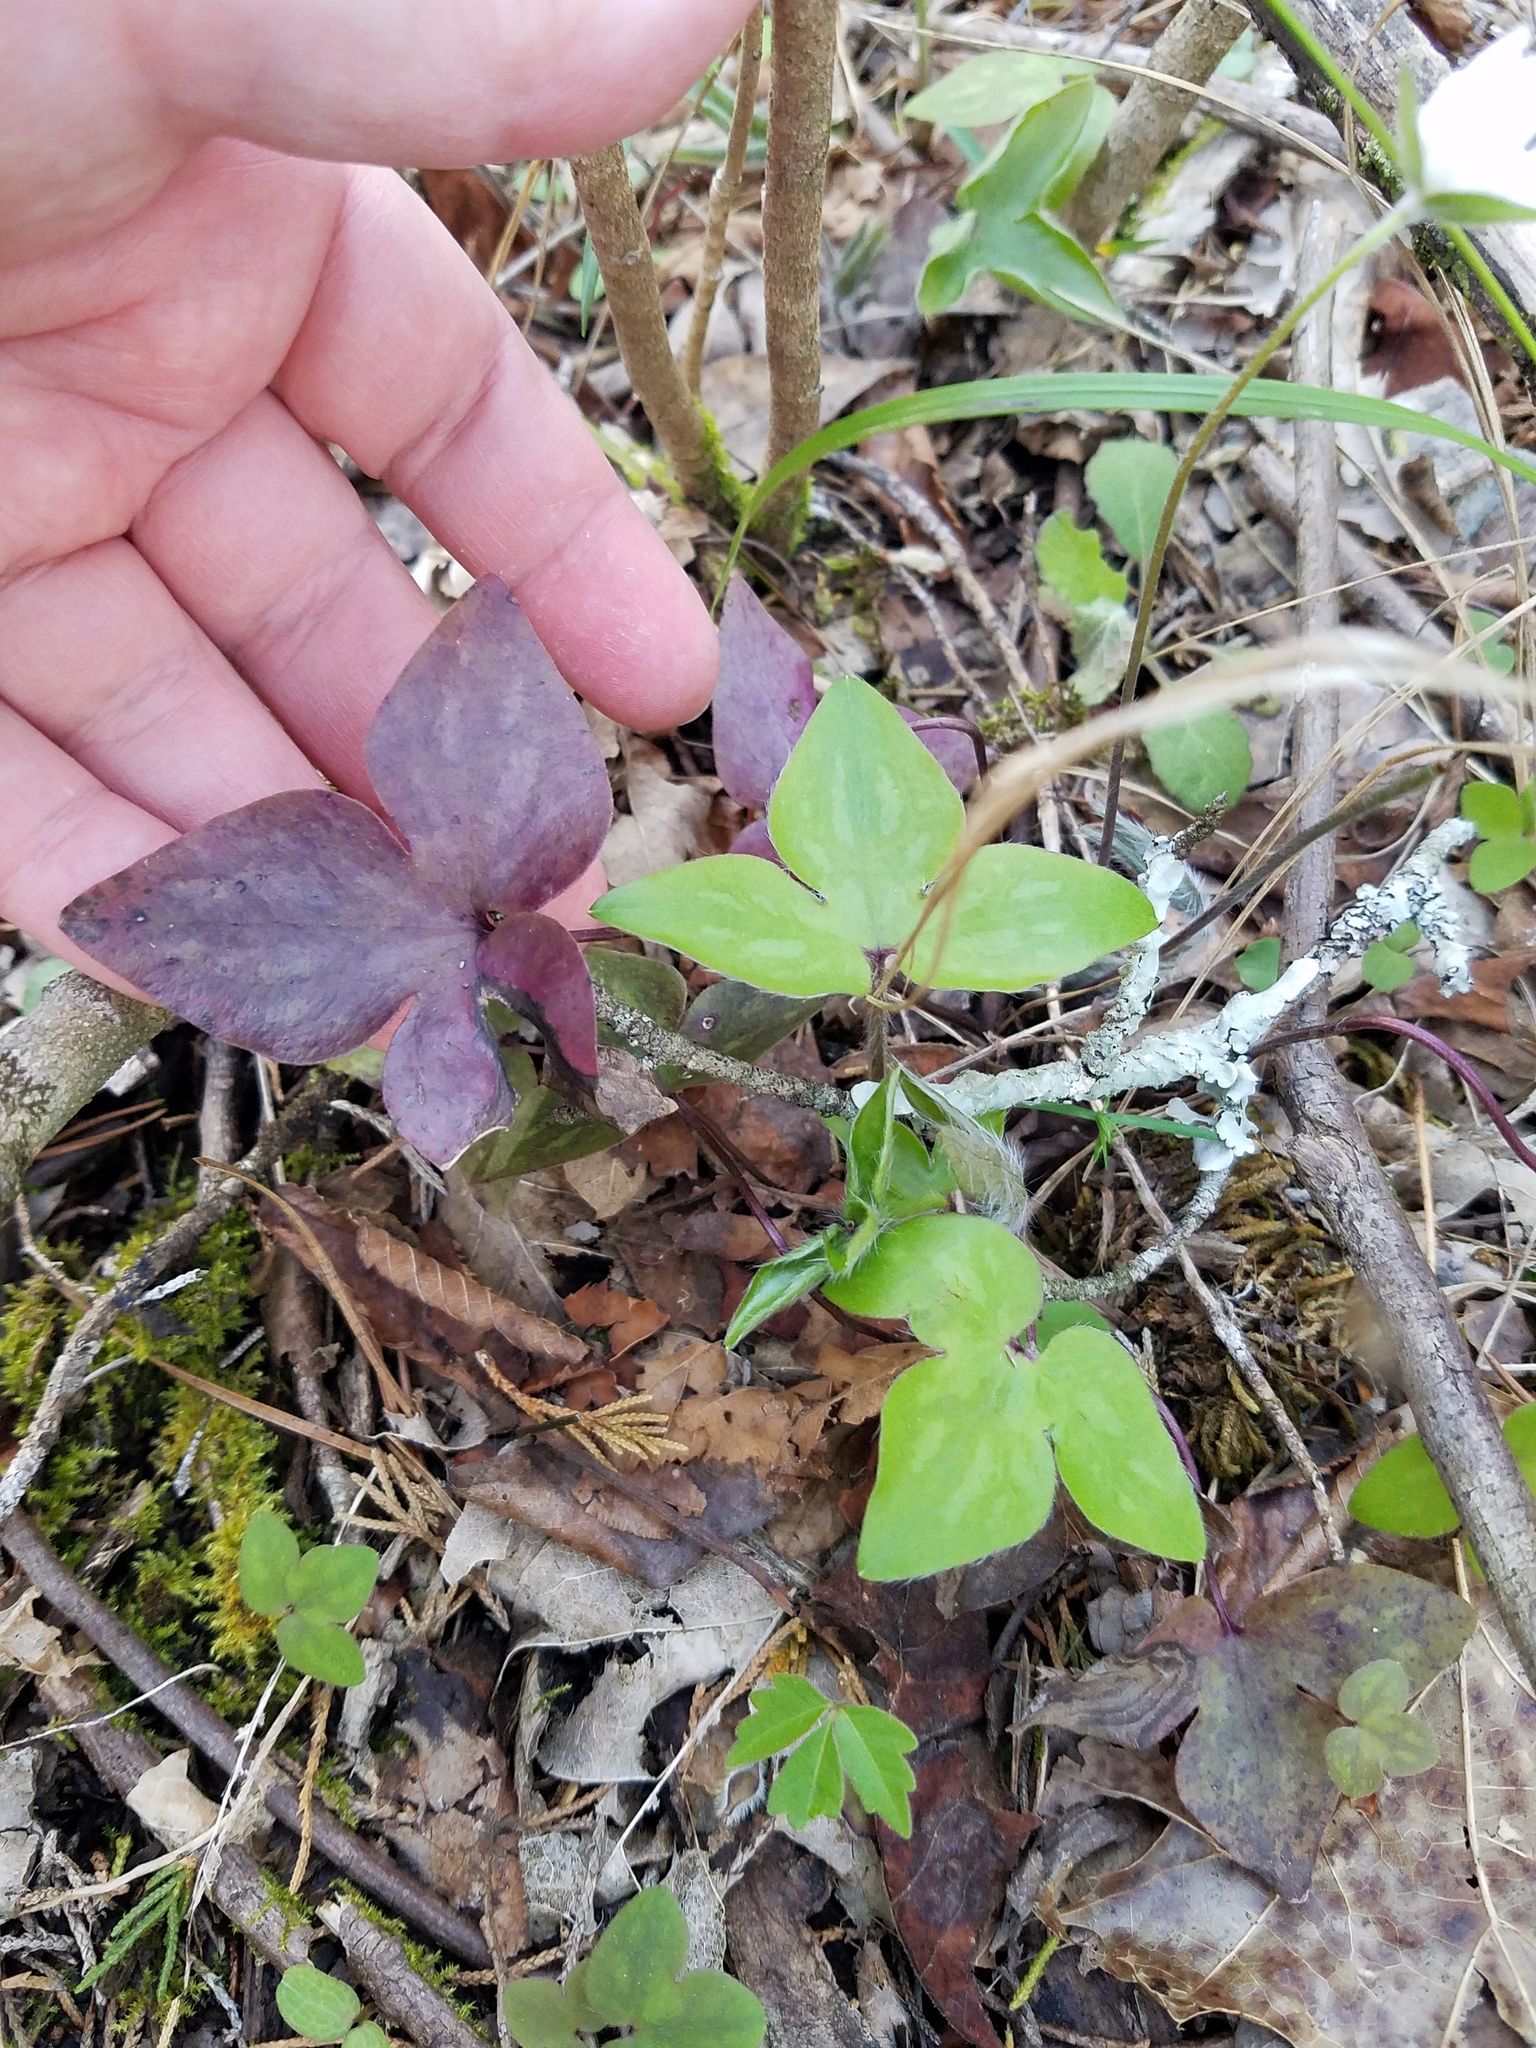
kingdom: Plantae
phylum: Tracheophyta
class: Magnoliopsida
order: Ranunculales
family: Ranunculaceae
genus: Hepatica
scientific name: Hepatica acutiloba
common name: Sharp-lobed hepatica
